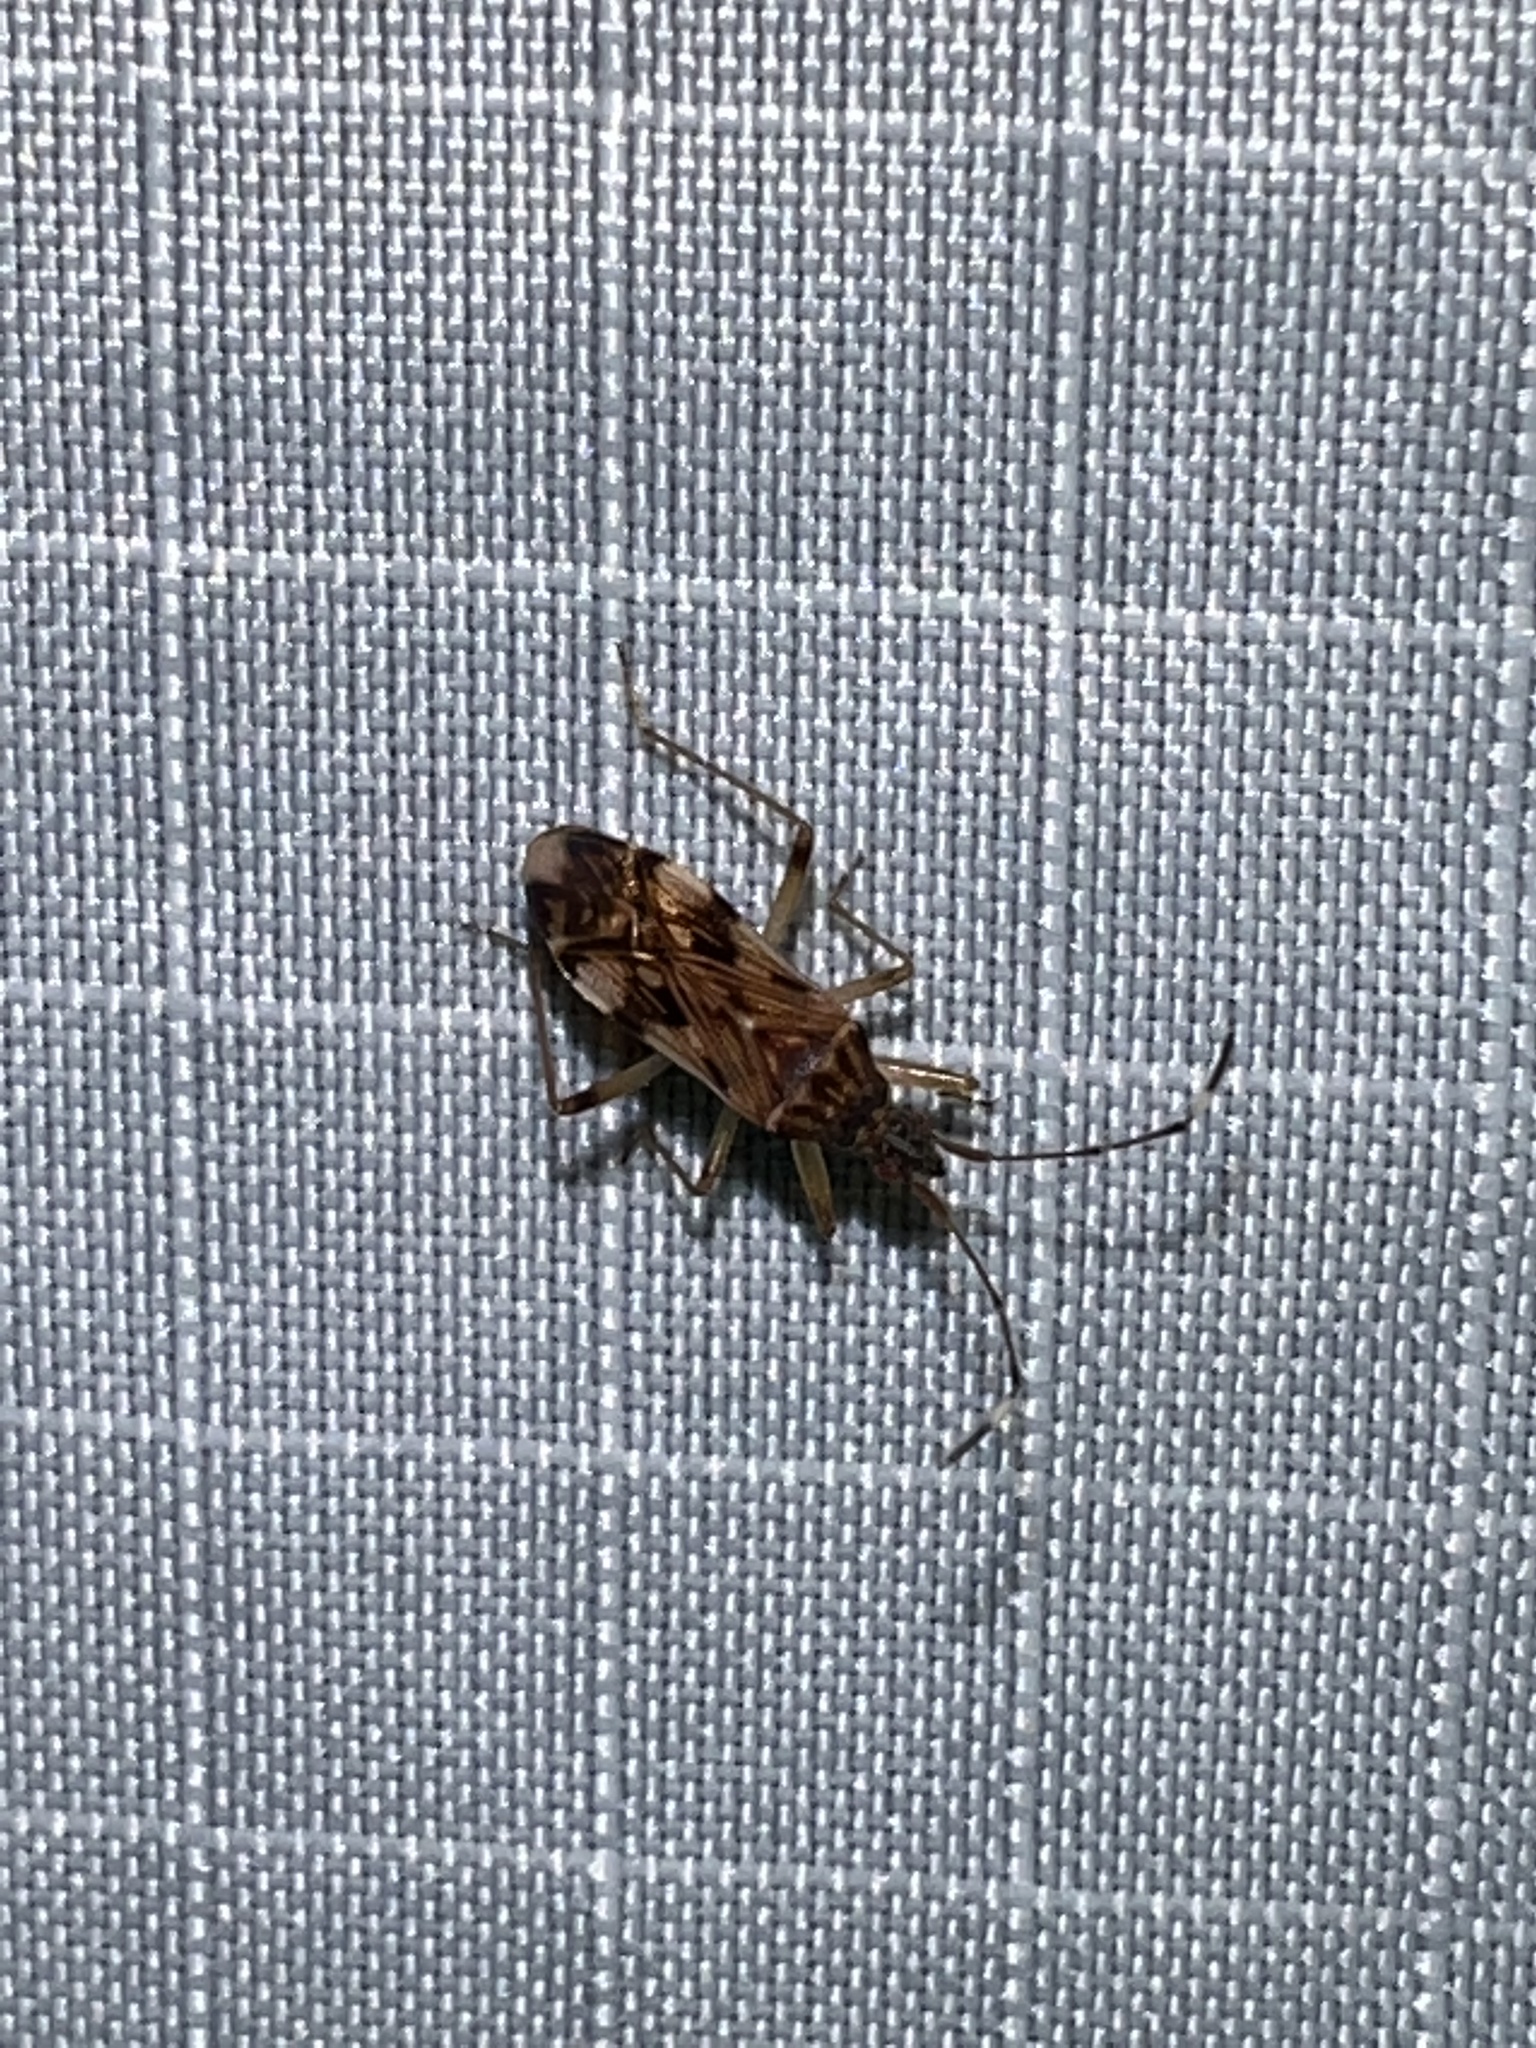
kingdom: Animalia
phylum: Arthropoda
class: Insecta
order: Hemiptera
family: Rhyparochromidae
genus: Ozophora
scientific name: Ozophora picturata
